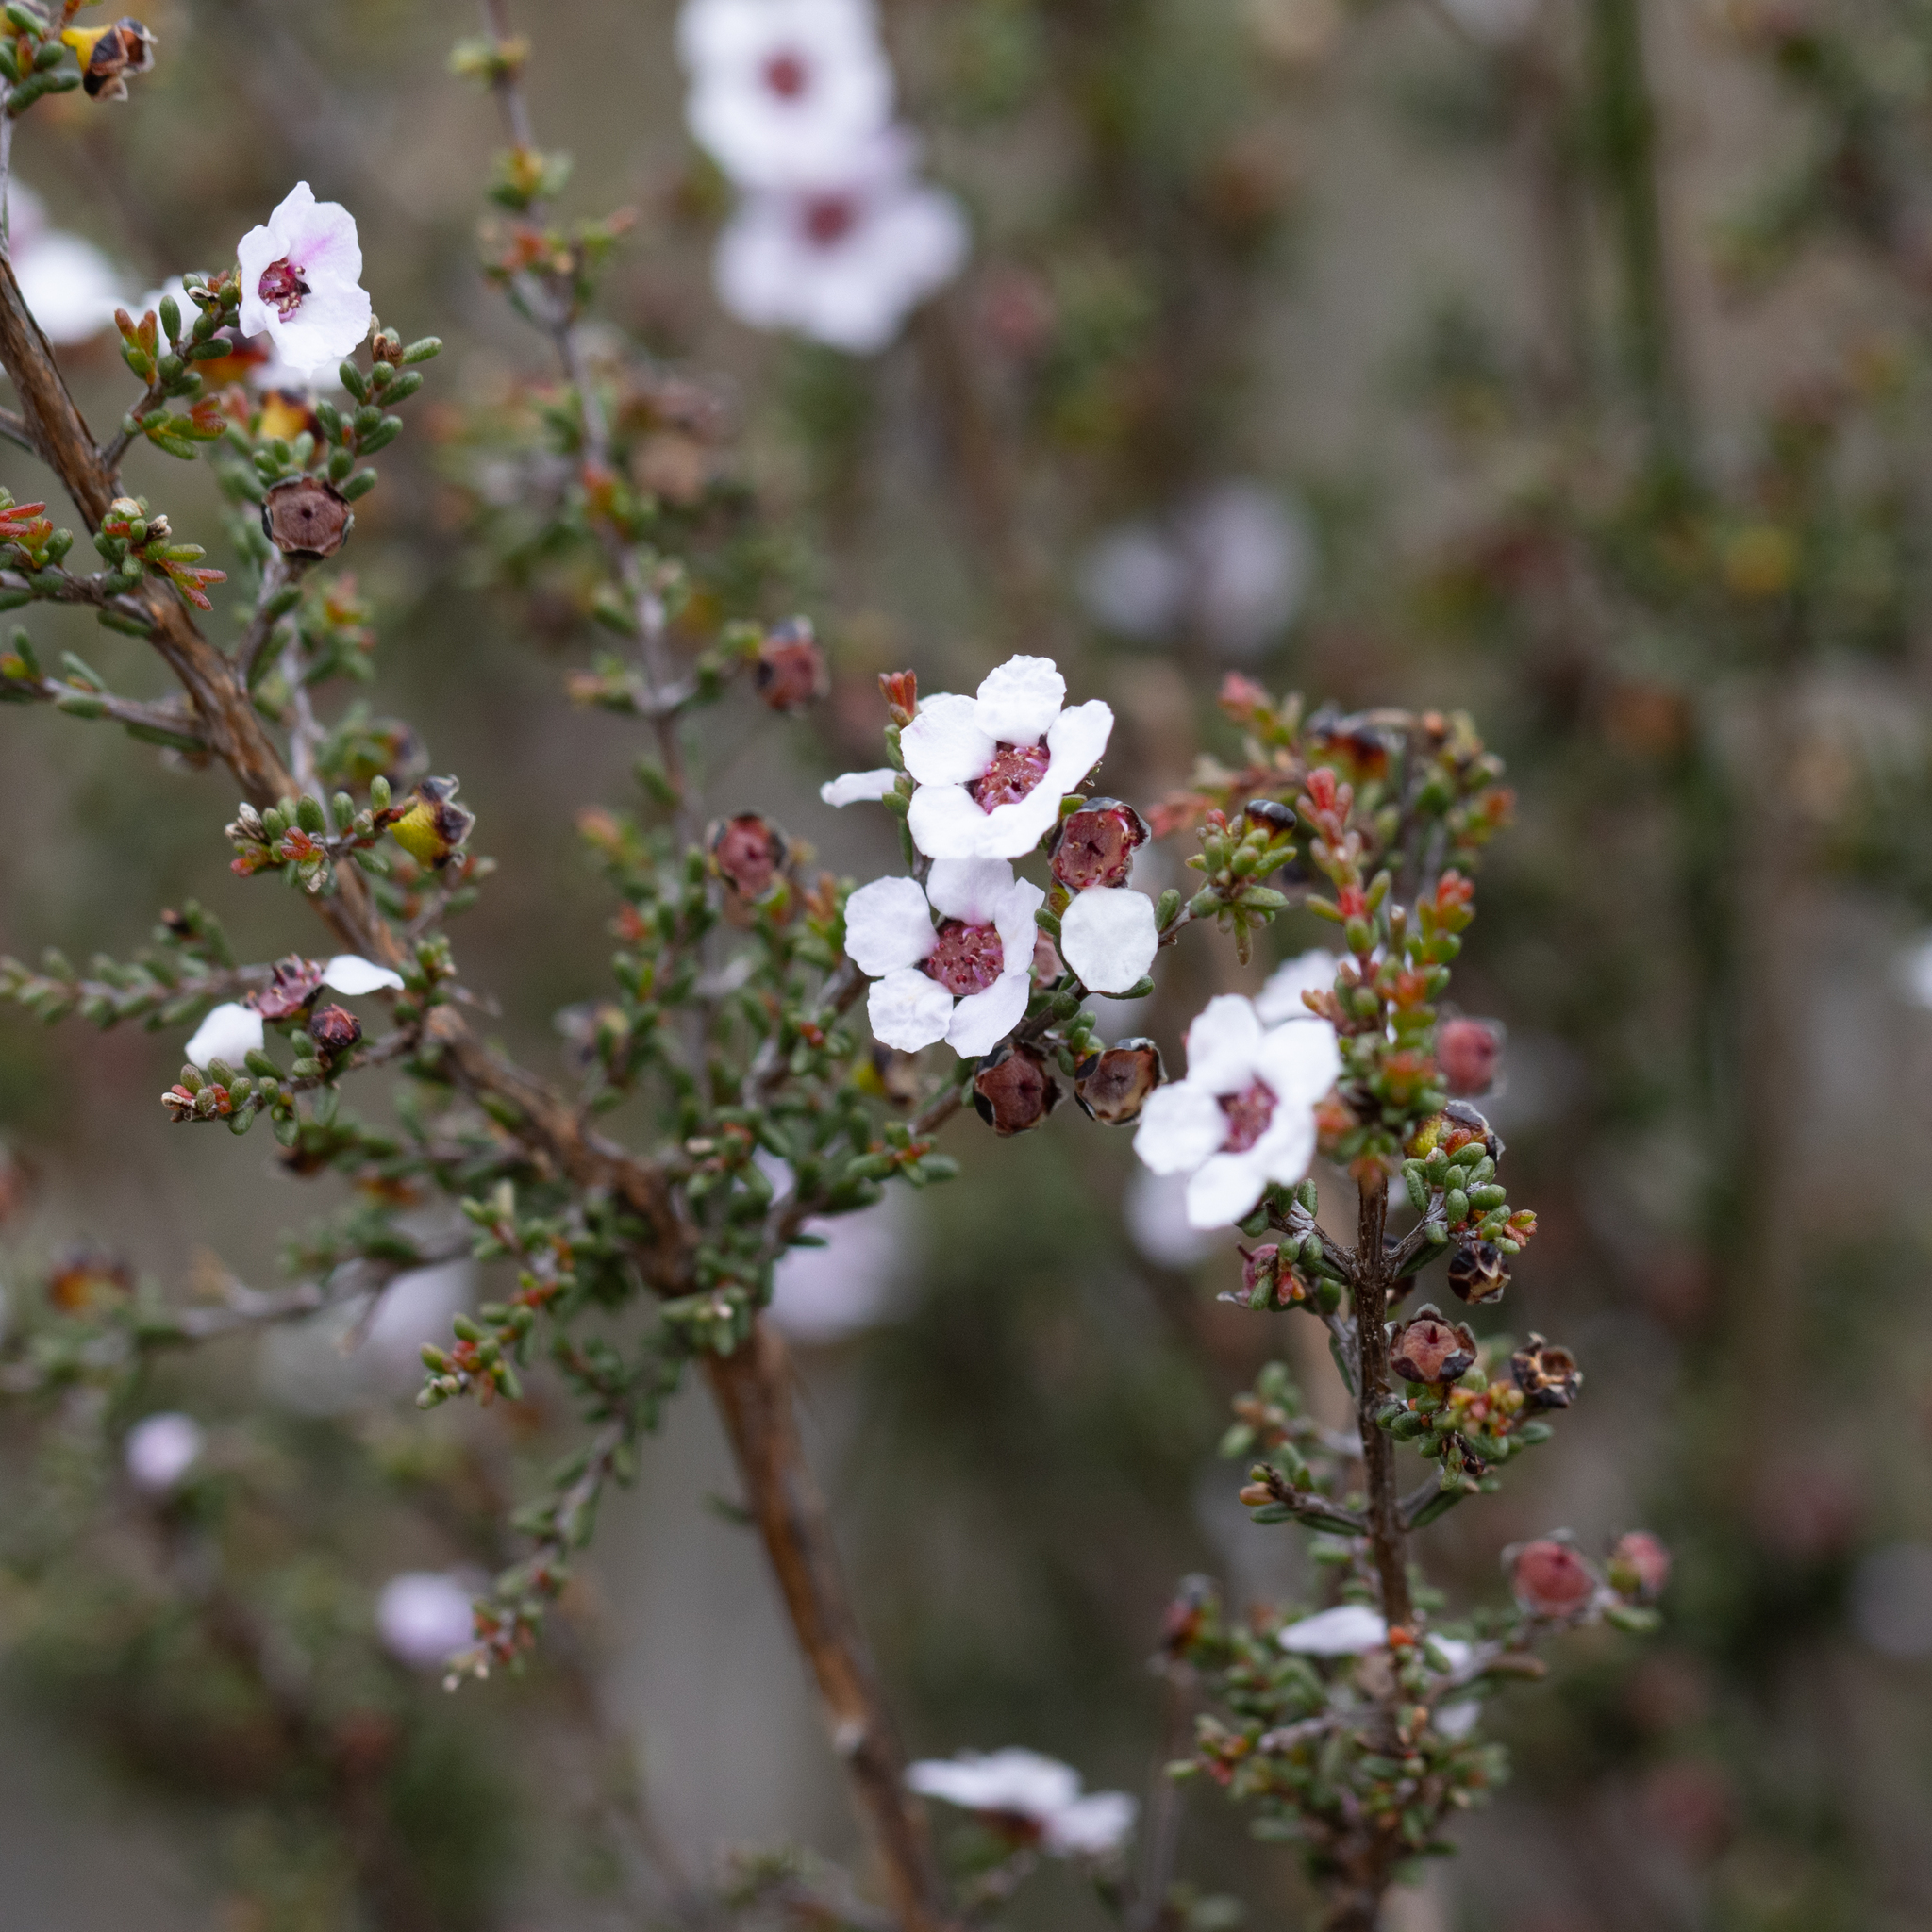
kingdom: Plantae
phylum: Tracheophyta
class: Magnoliopsida
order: Myrtales
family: Myrtaceae
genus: Rinzia
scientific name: Rinzia orientalis
